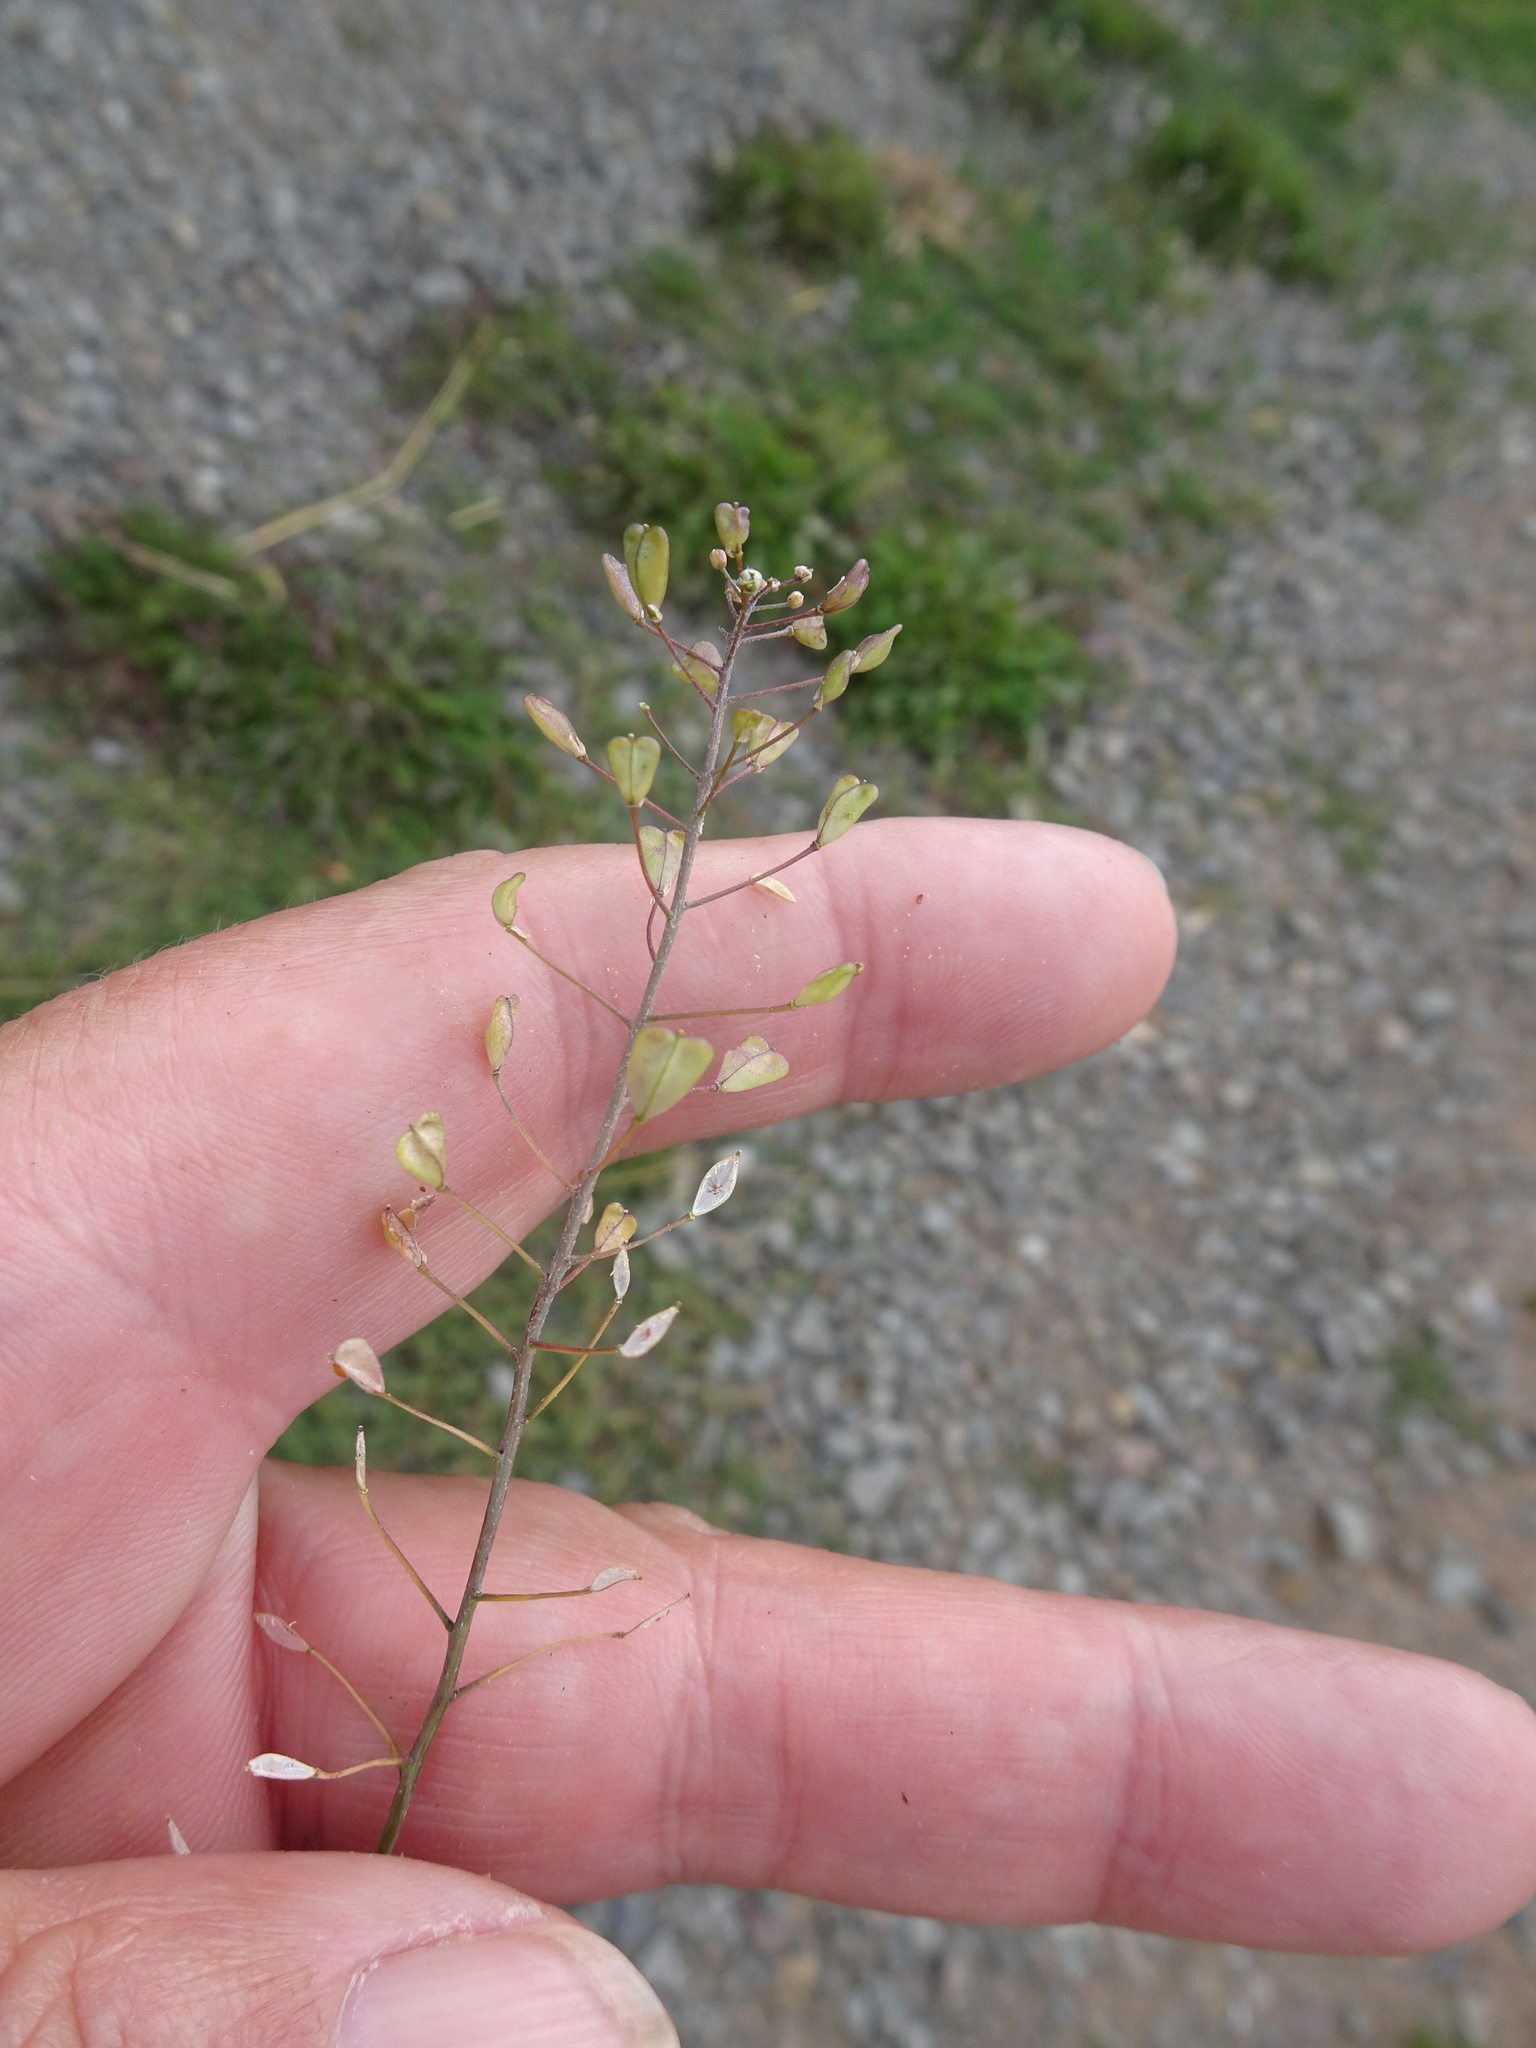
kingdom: Plantae
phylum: Tracheophyta
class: Magnoliopsida
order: Brassicales
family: Brassicaceae
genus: Capsella
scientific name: Capsella bursa-pastoris
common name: Shepherd's purse
